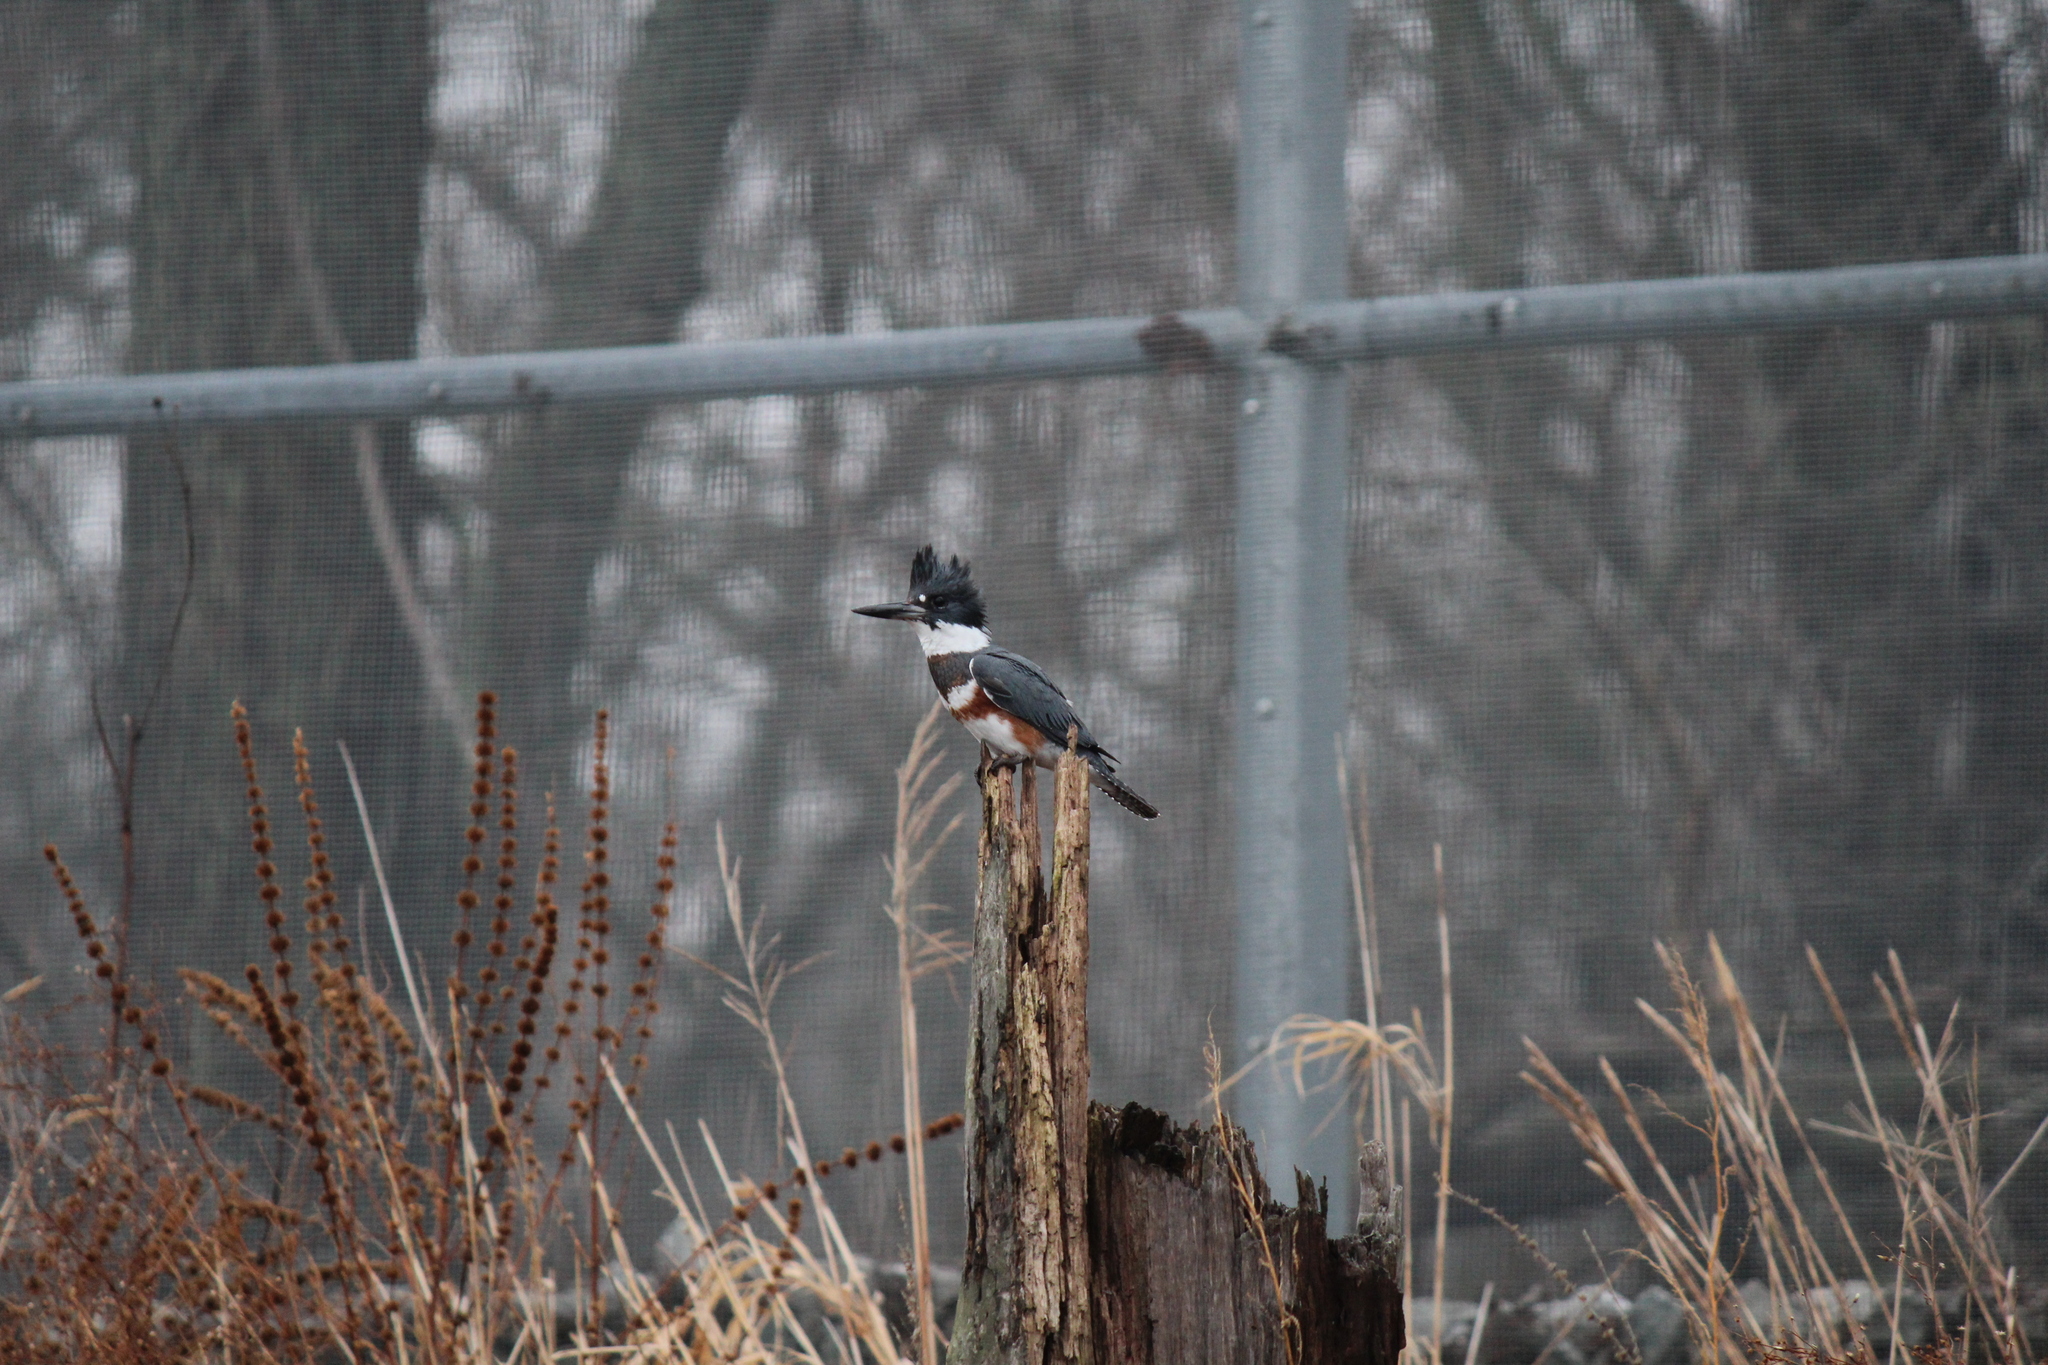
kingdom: Animalia
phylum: Chordata
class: Aves
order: Coraciiformes
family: Alcedinidae
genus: Megaceryle
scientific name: Megaceryle alcyon
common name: Belted kingfisher
